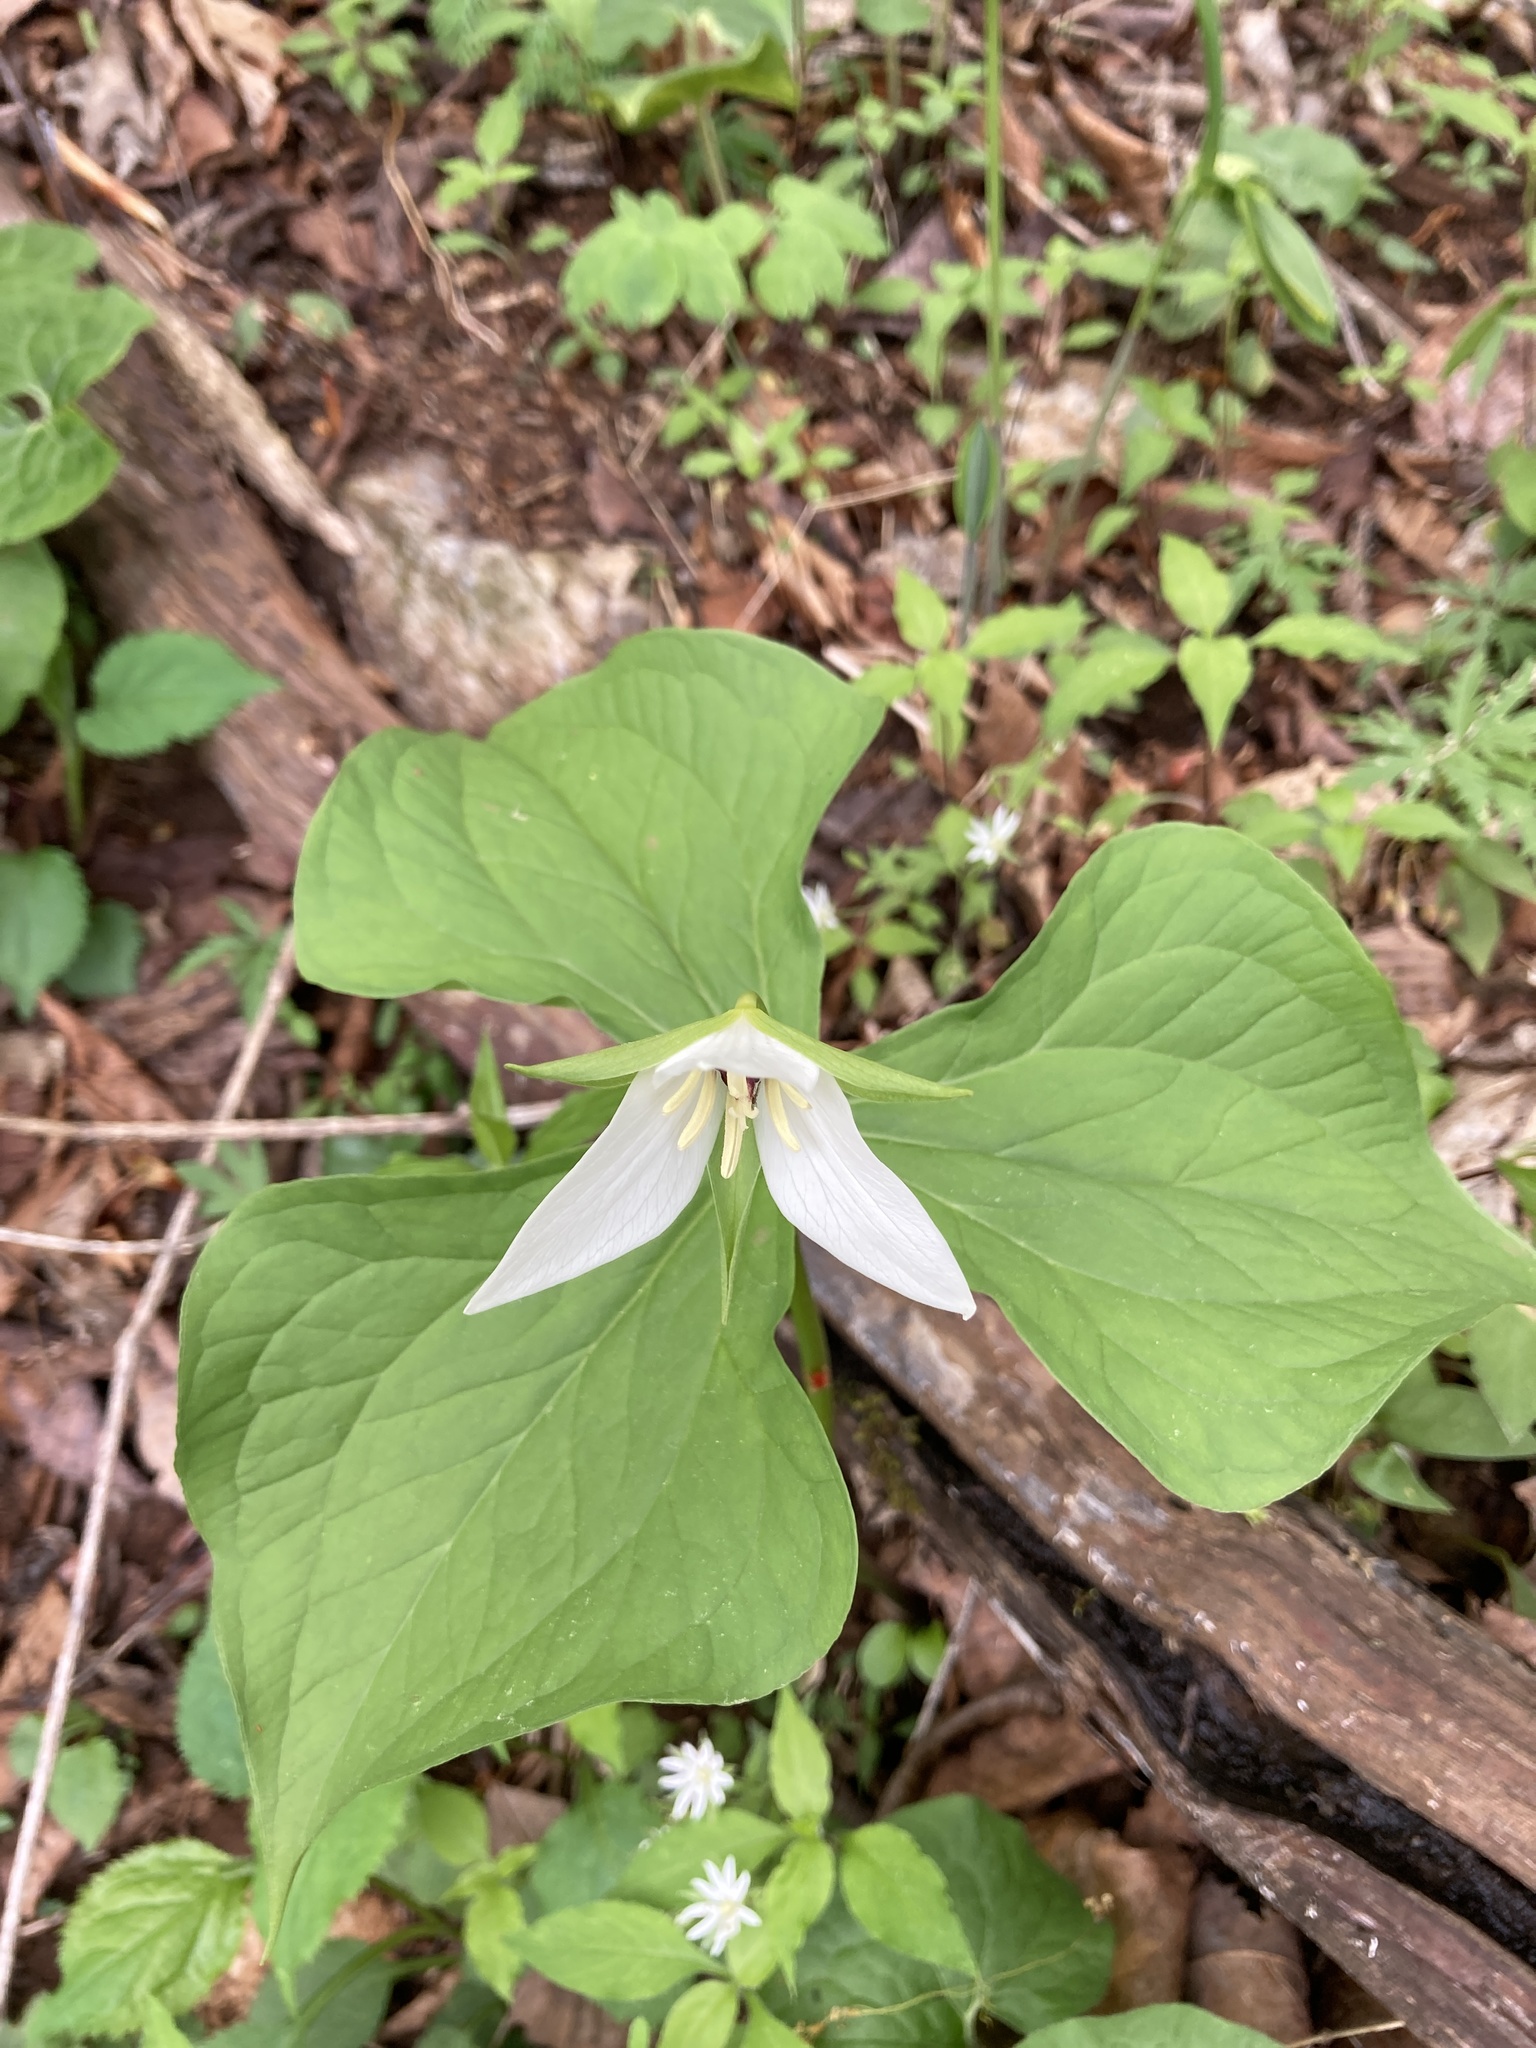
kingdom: Plantae
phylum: Tracheophyta
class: Liliopsida
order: Liliales
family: Melanthiaceae
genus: Trillium
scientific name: Trillium erectum
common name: Purple trillium
